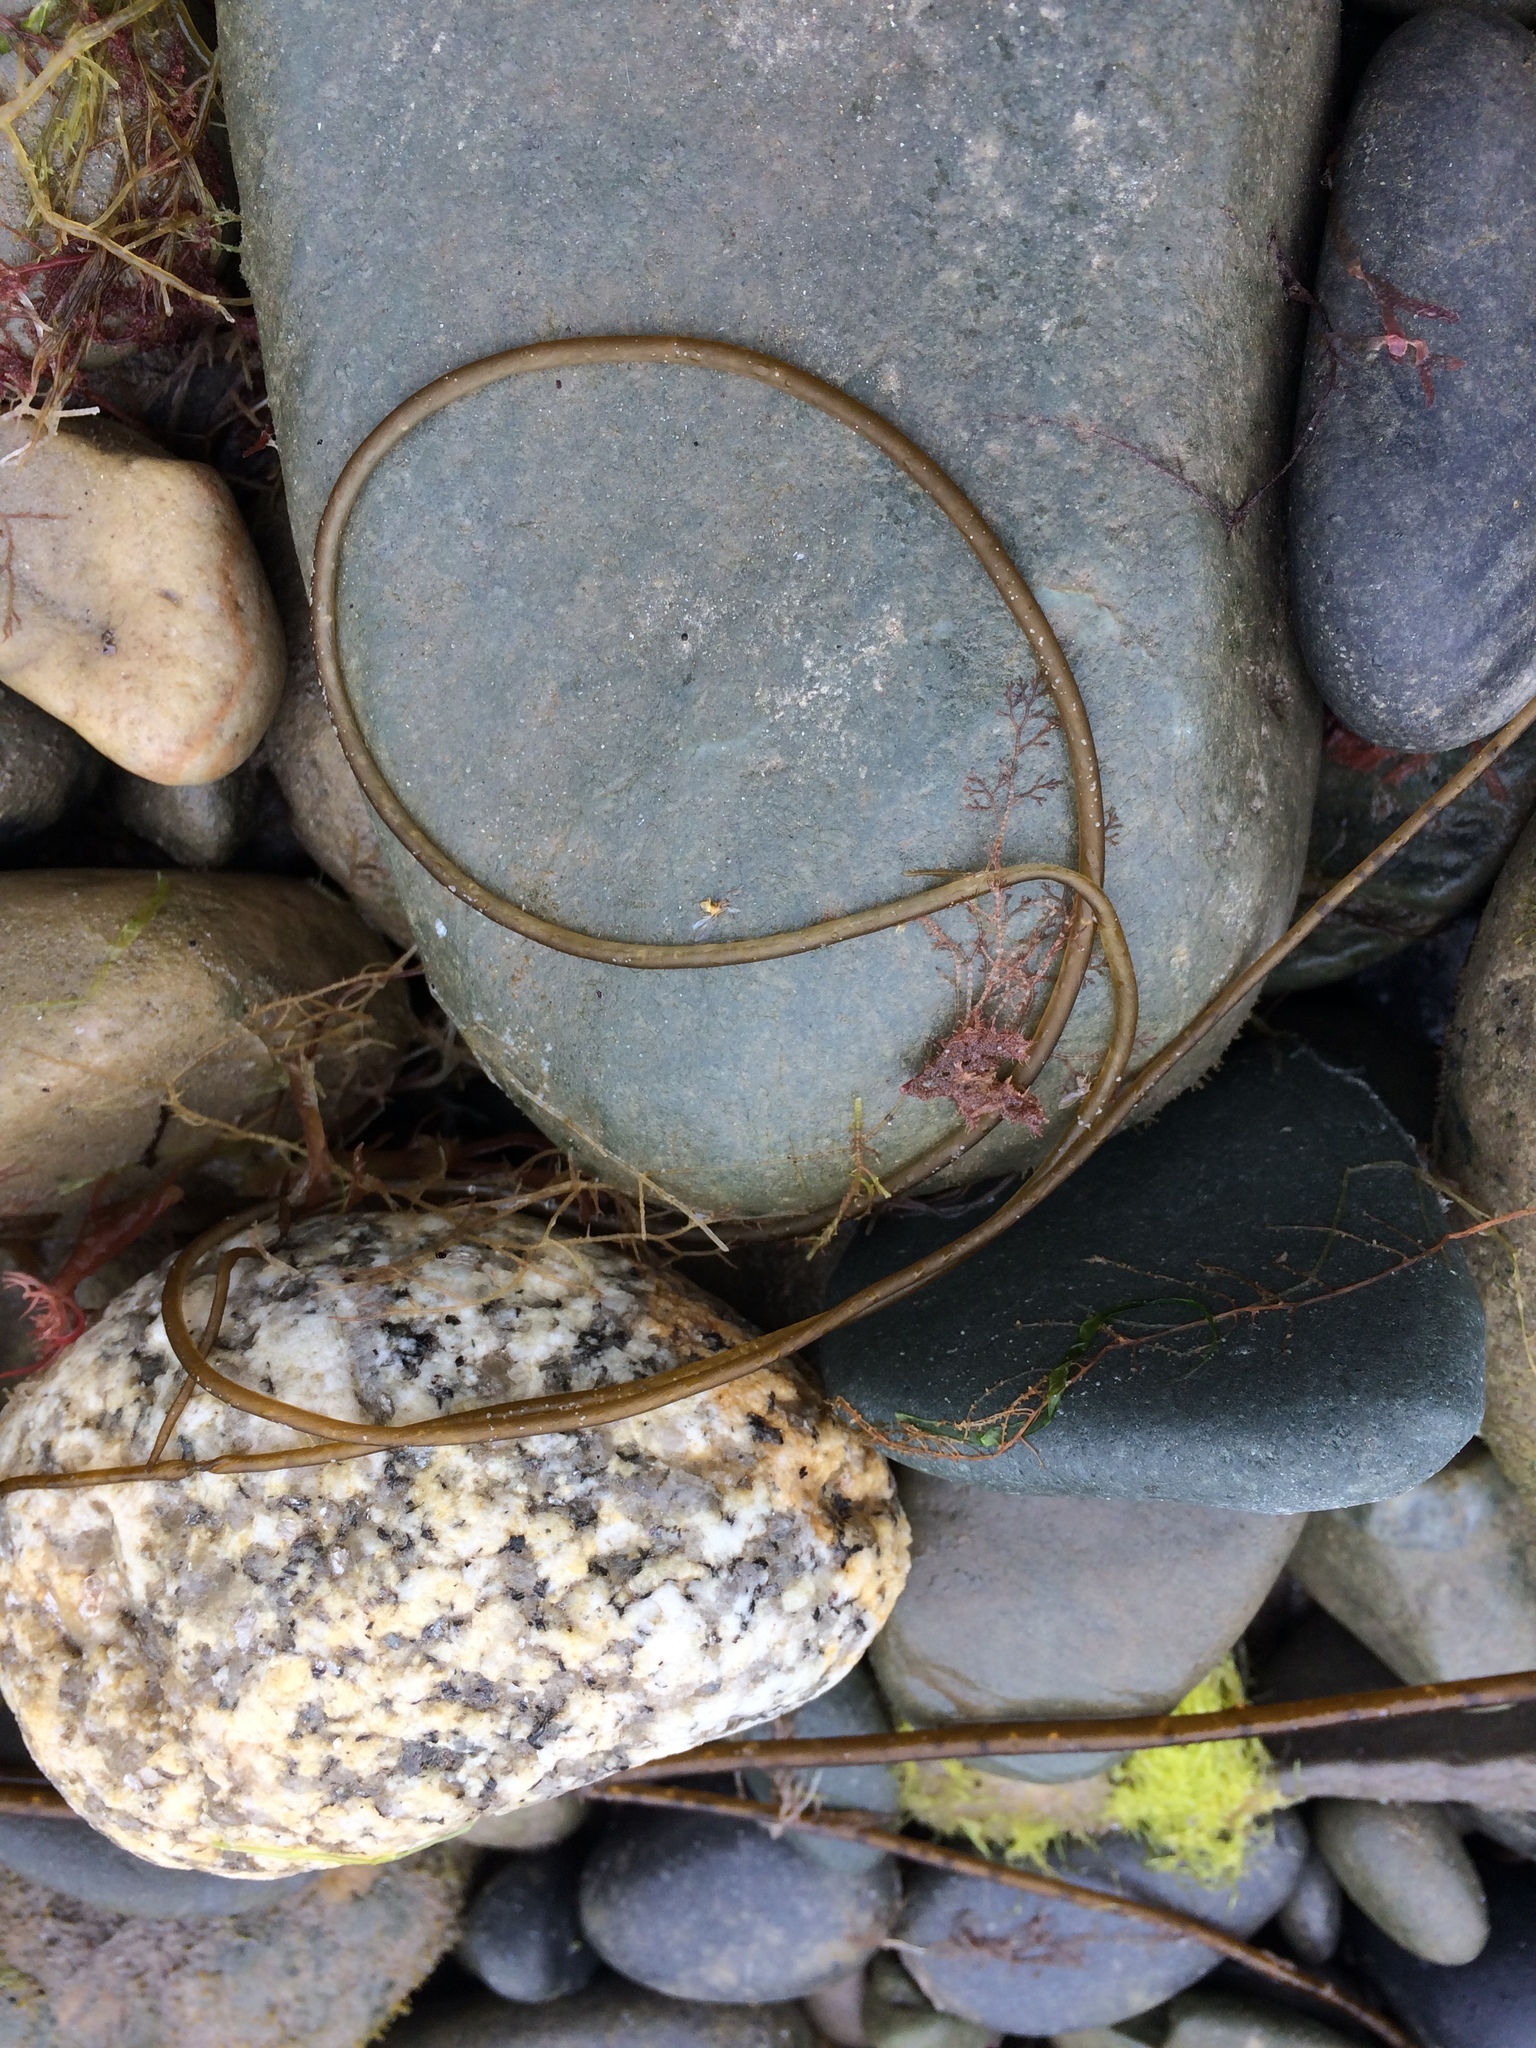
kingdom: Chromista
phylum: Ochrophyta
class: Phaeophyceae
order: Laminariales
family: Chordaceae
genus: Chorda
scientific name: Chorda filum
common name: Mermaid's tresses
